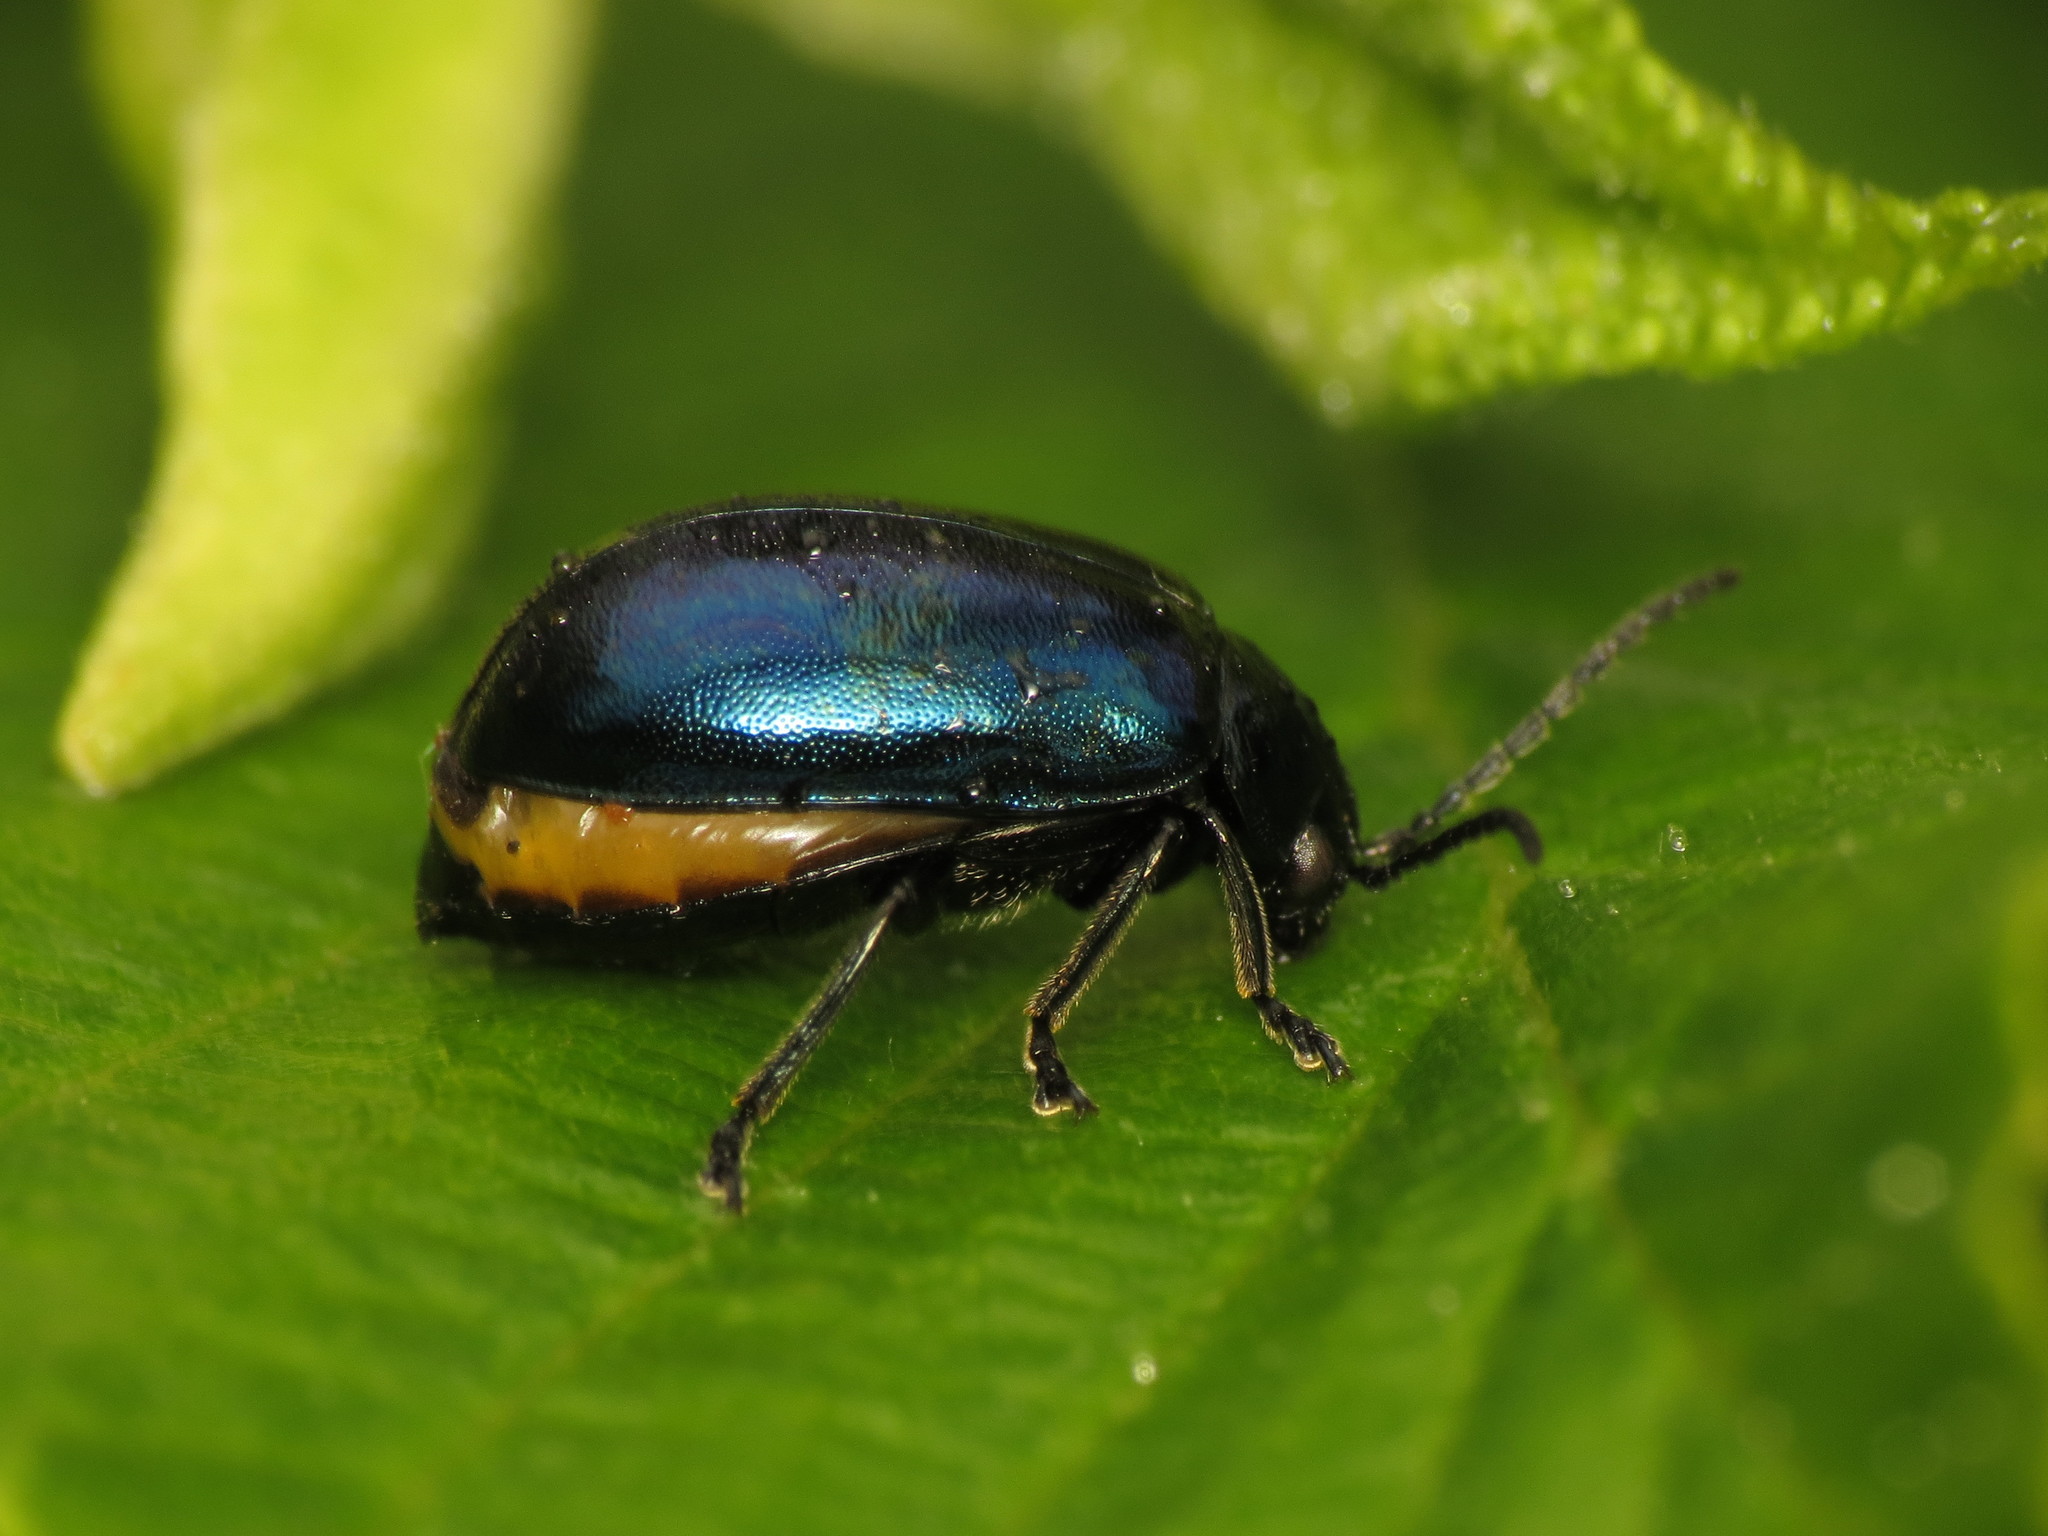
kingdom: Animalia
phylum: Arthropoda
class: Insecta
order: Coleoptera
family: Chrysomelidae
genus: Agelastica
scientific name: Agelastica alni
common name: Alder leaf beetle
